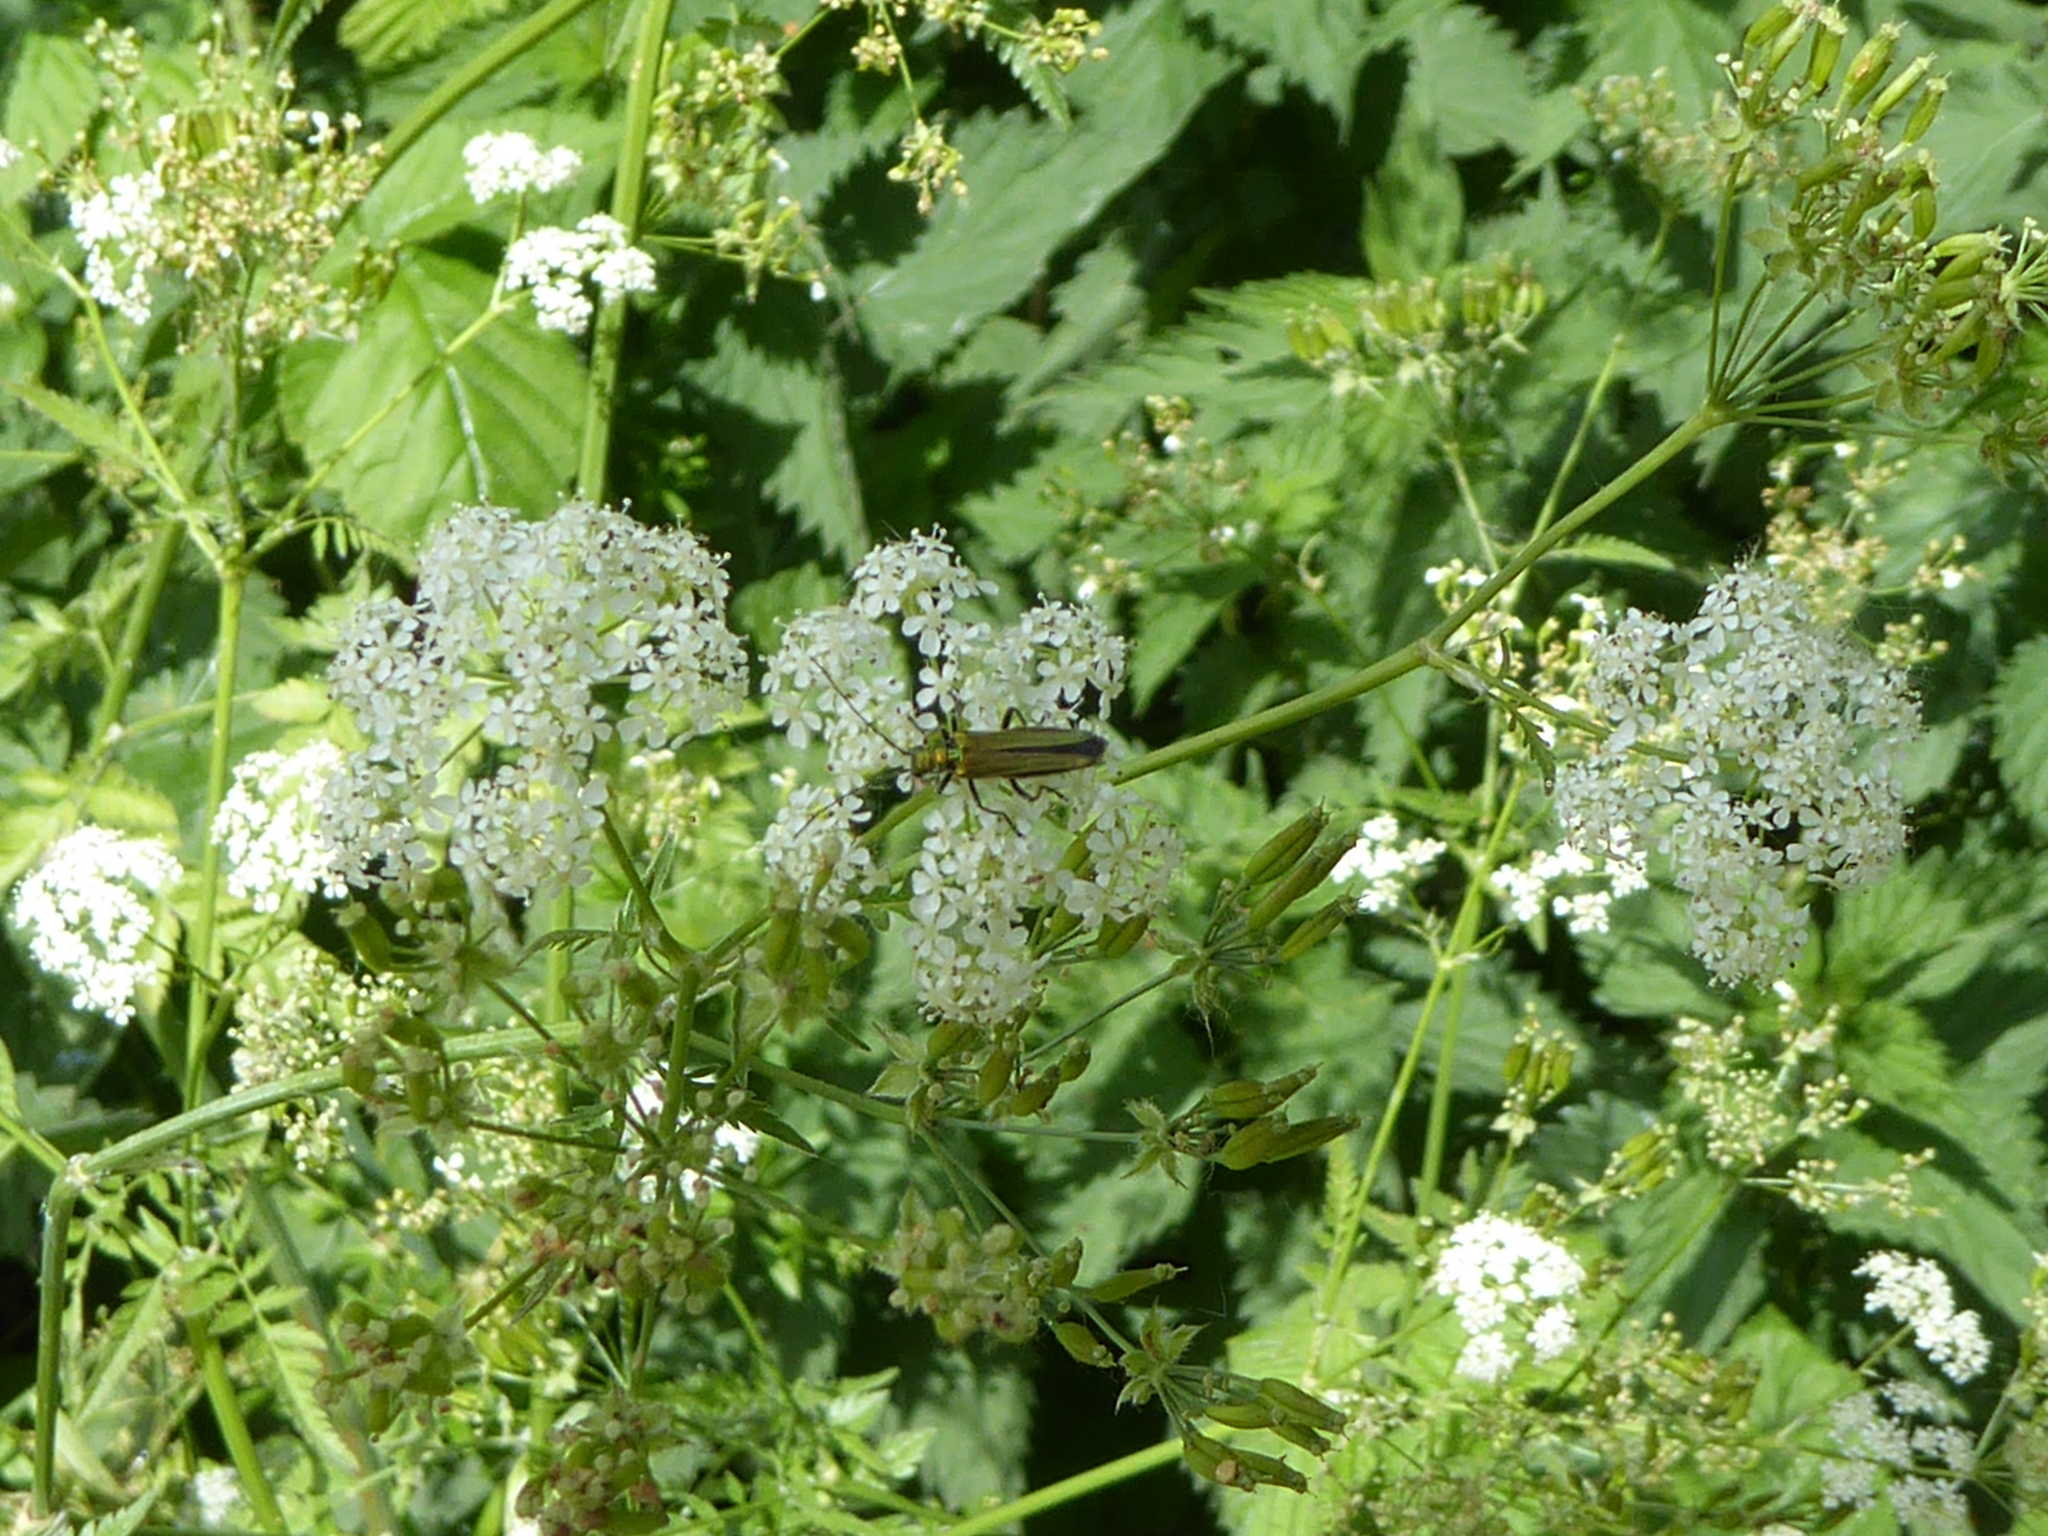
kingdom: Plantae
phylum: Tracheophyta
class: Magnoliopsida
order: Apiales
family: Apiaceae
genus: Anthriscus
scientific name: Anthriscus sylvestris
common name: Cow parsley
